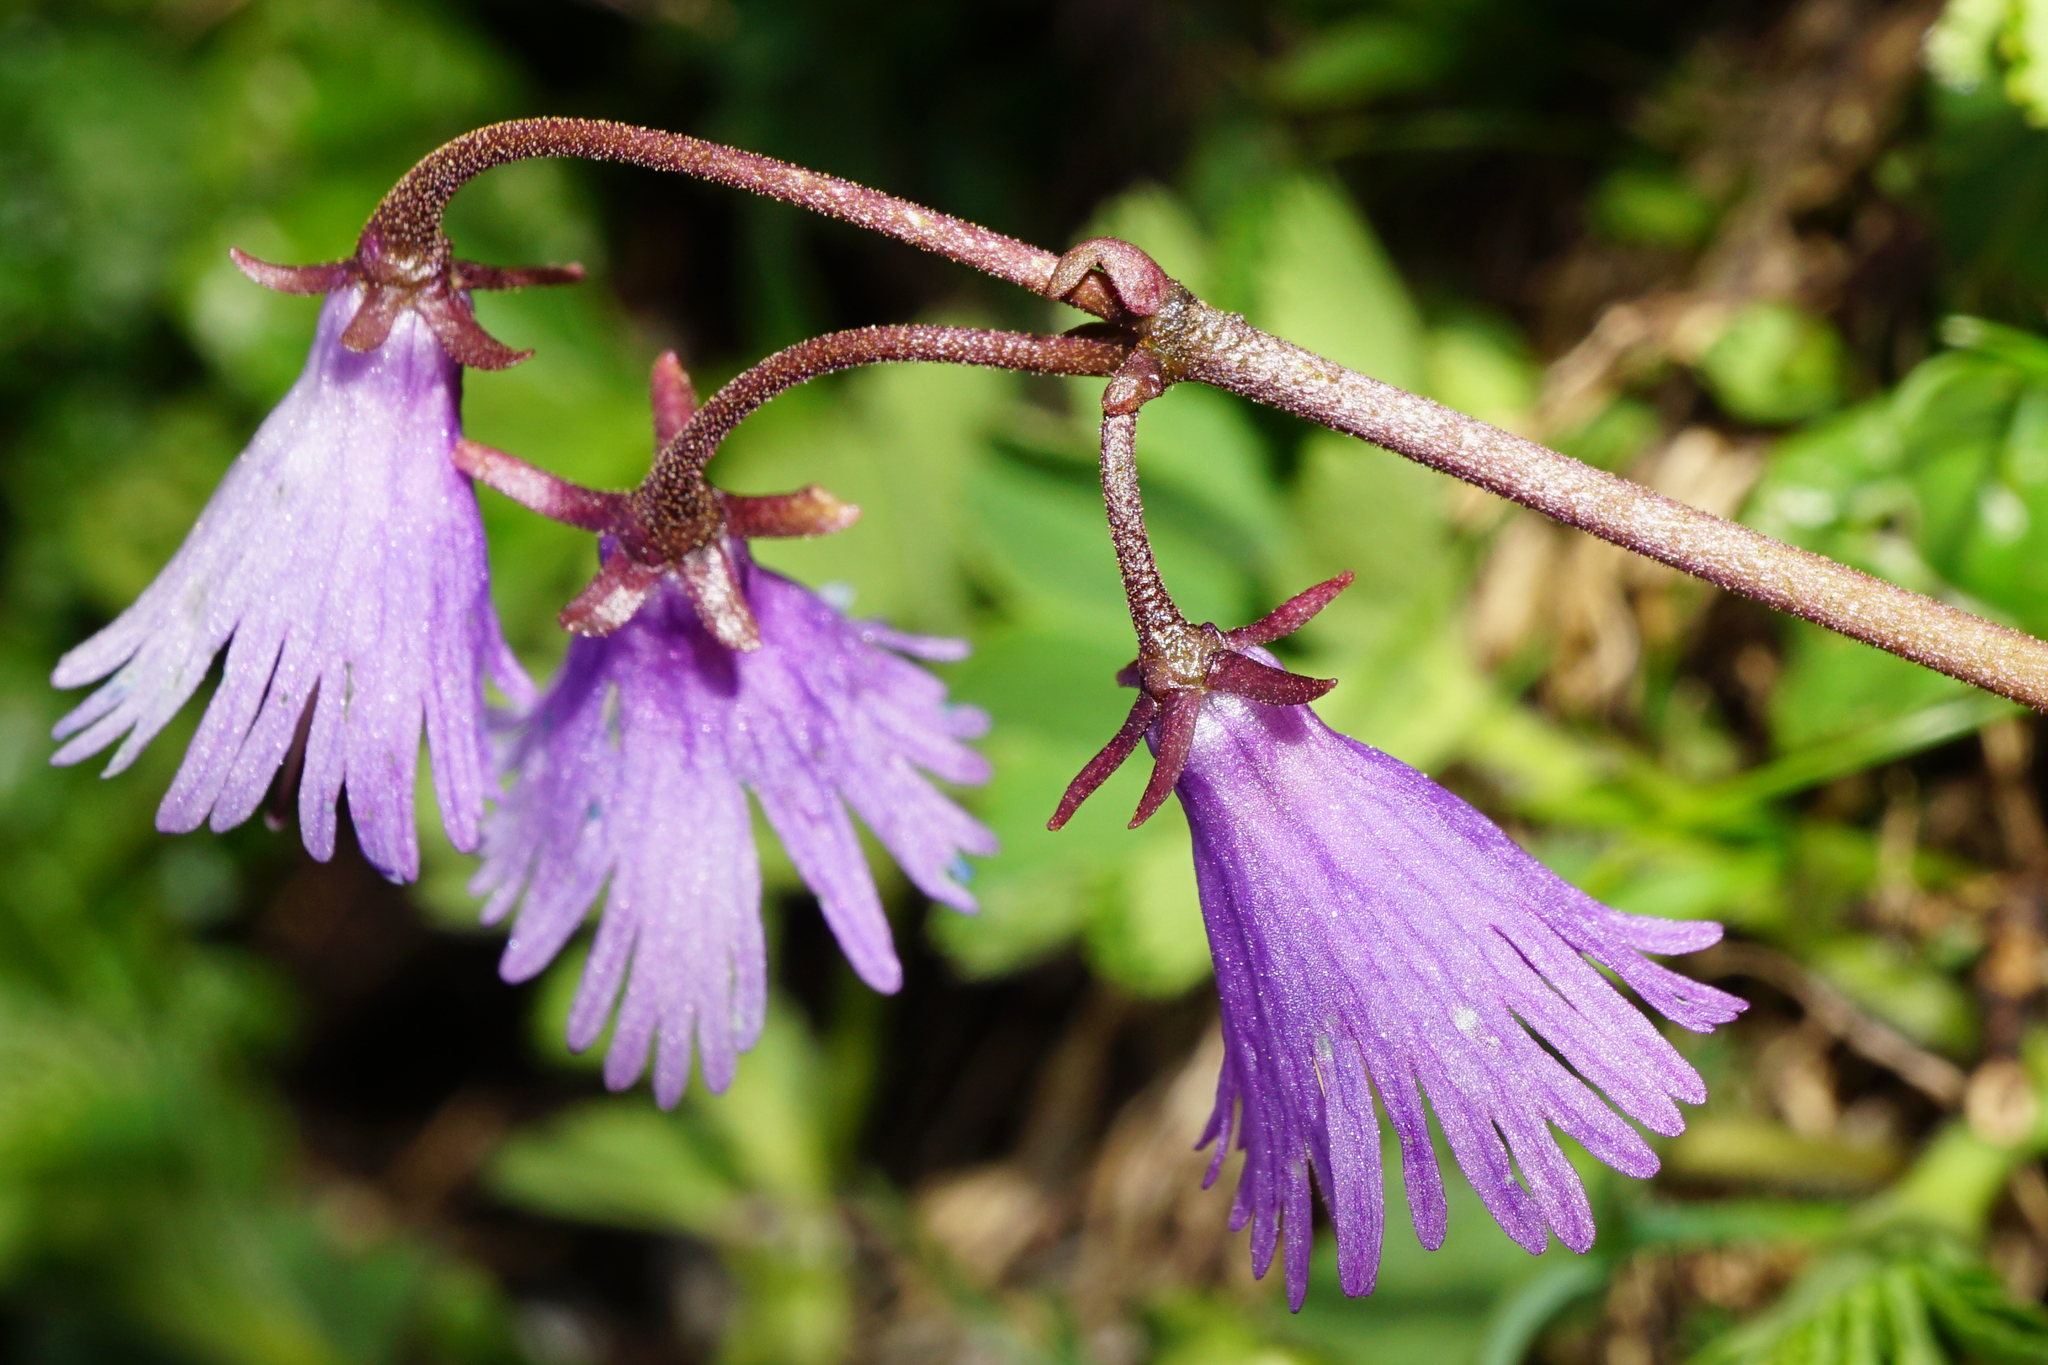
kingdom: Plantae
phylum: Tracheophyta
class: Magnoliopsida
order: Ericales
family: Primulaceae
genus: Soldanella
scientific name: Soldanella alpina
